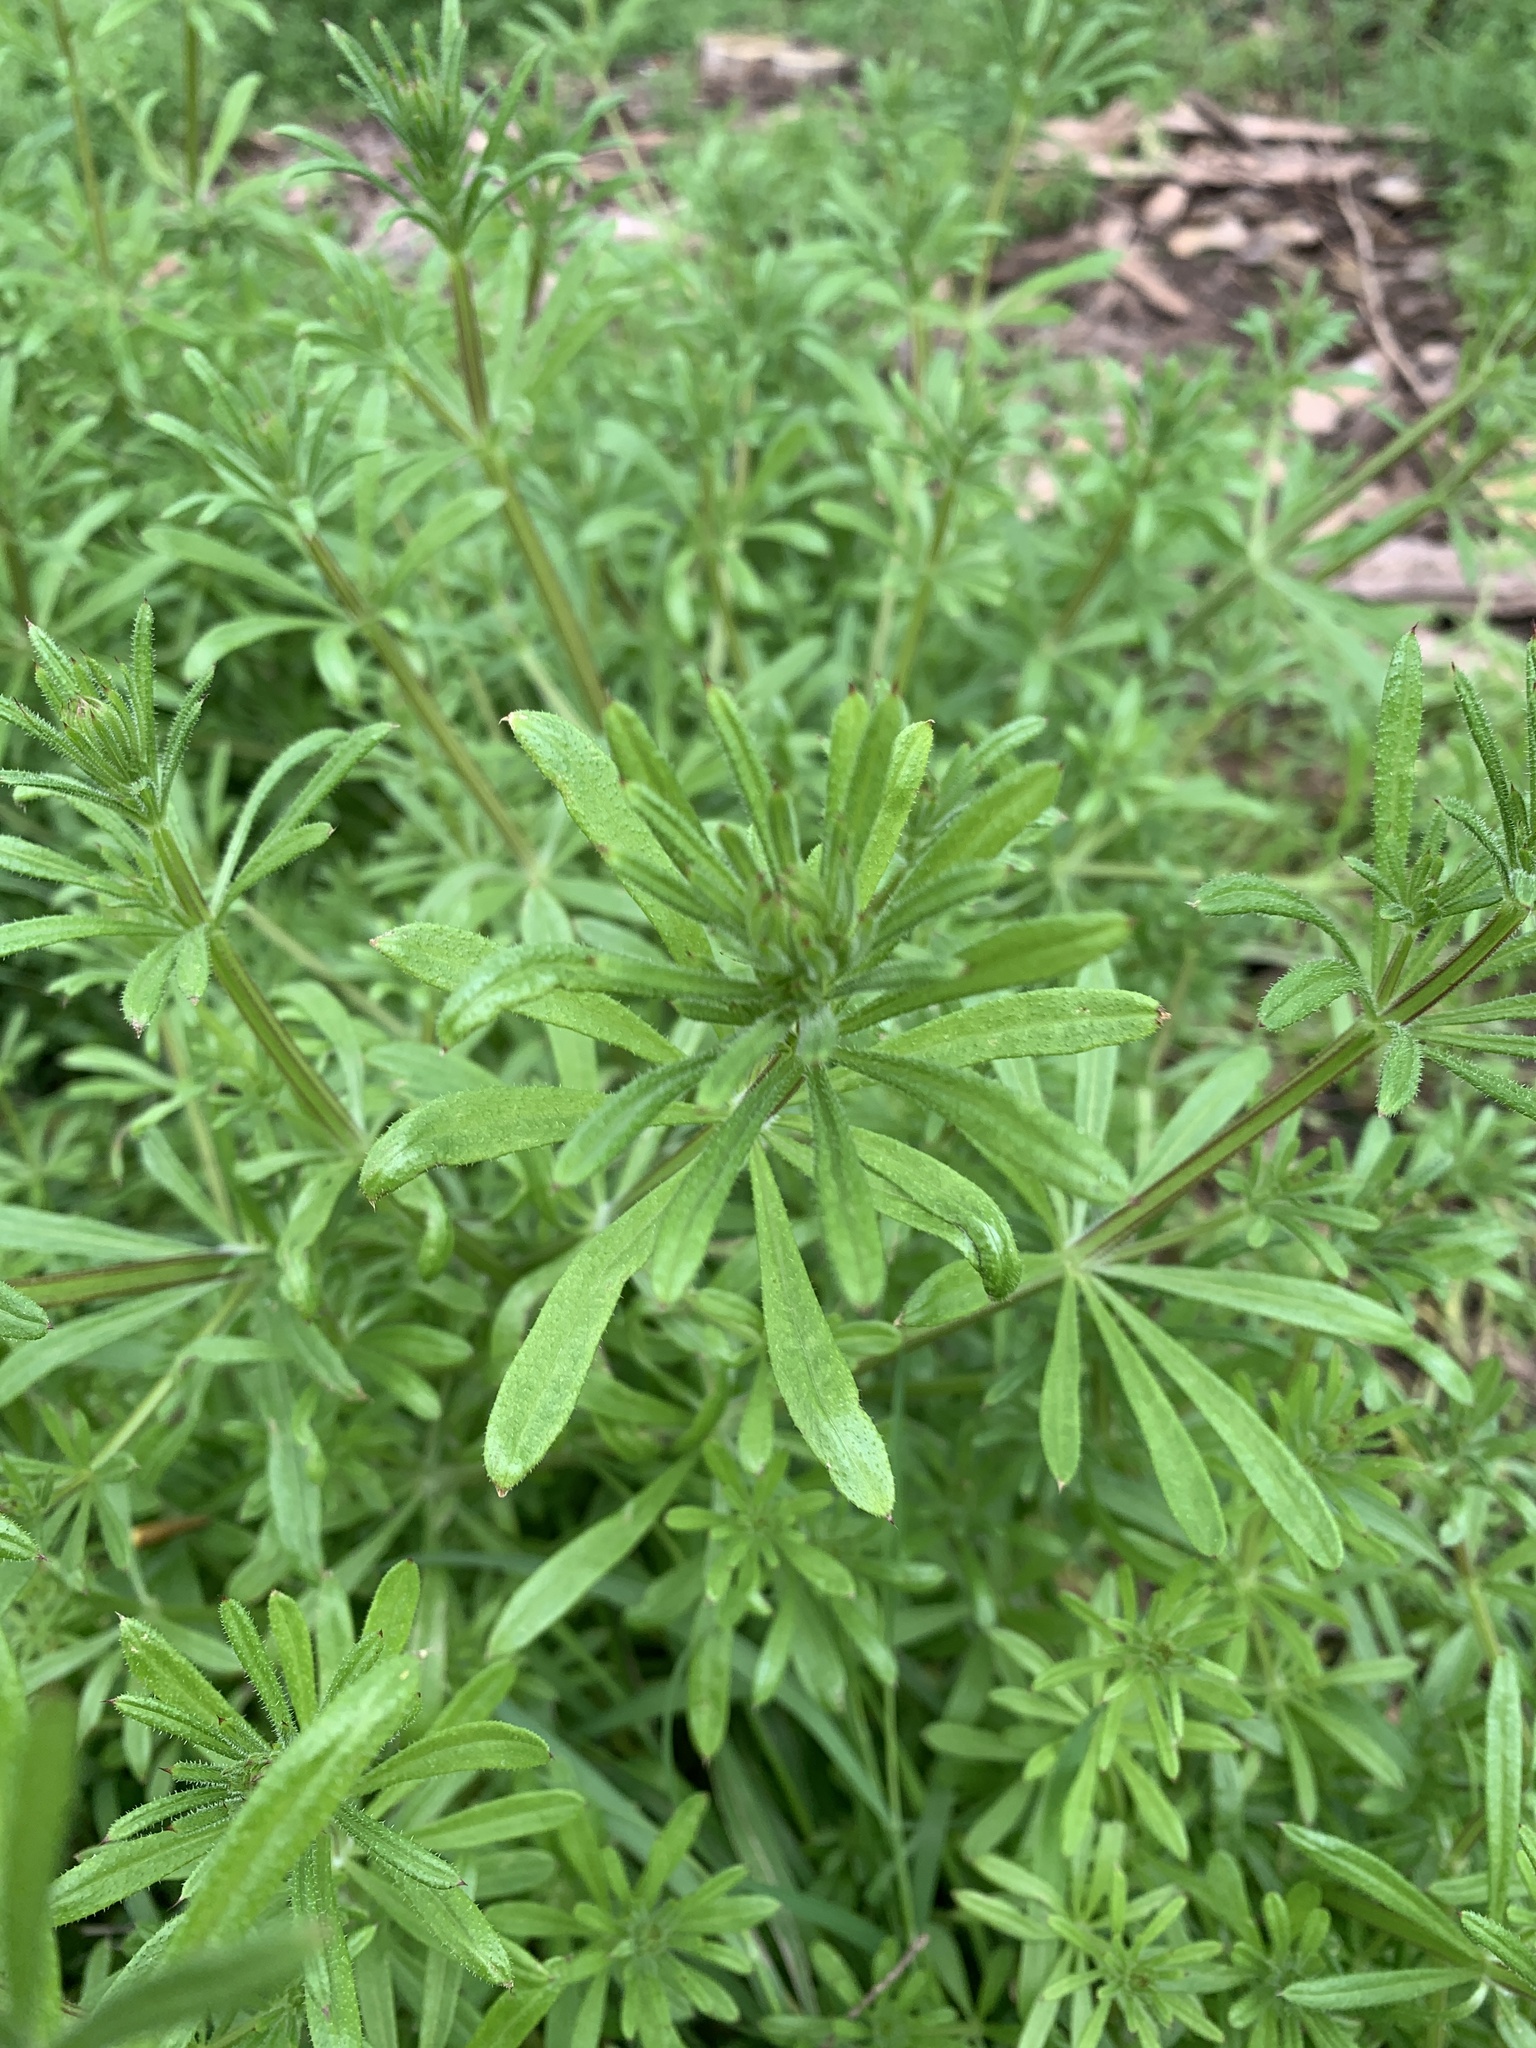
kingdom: Plantae
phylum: Tracheophyta
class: Magnoliopsida
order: Gentianales
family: Rubiaceae
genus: Galium
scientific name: Galium aparine
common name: Cleavers
